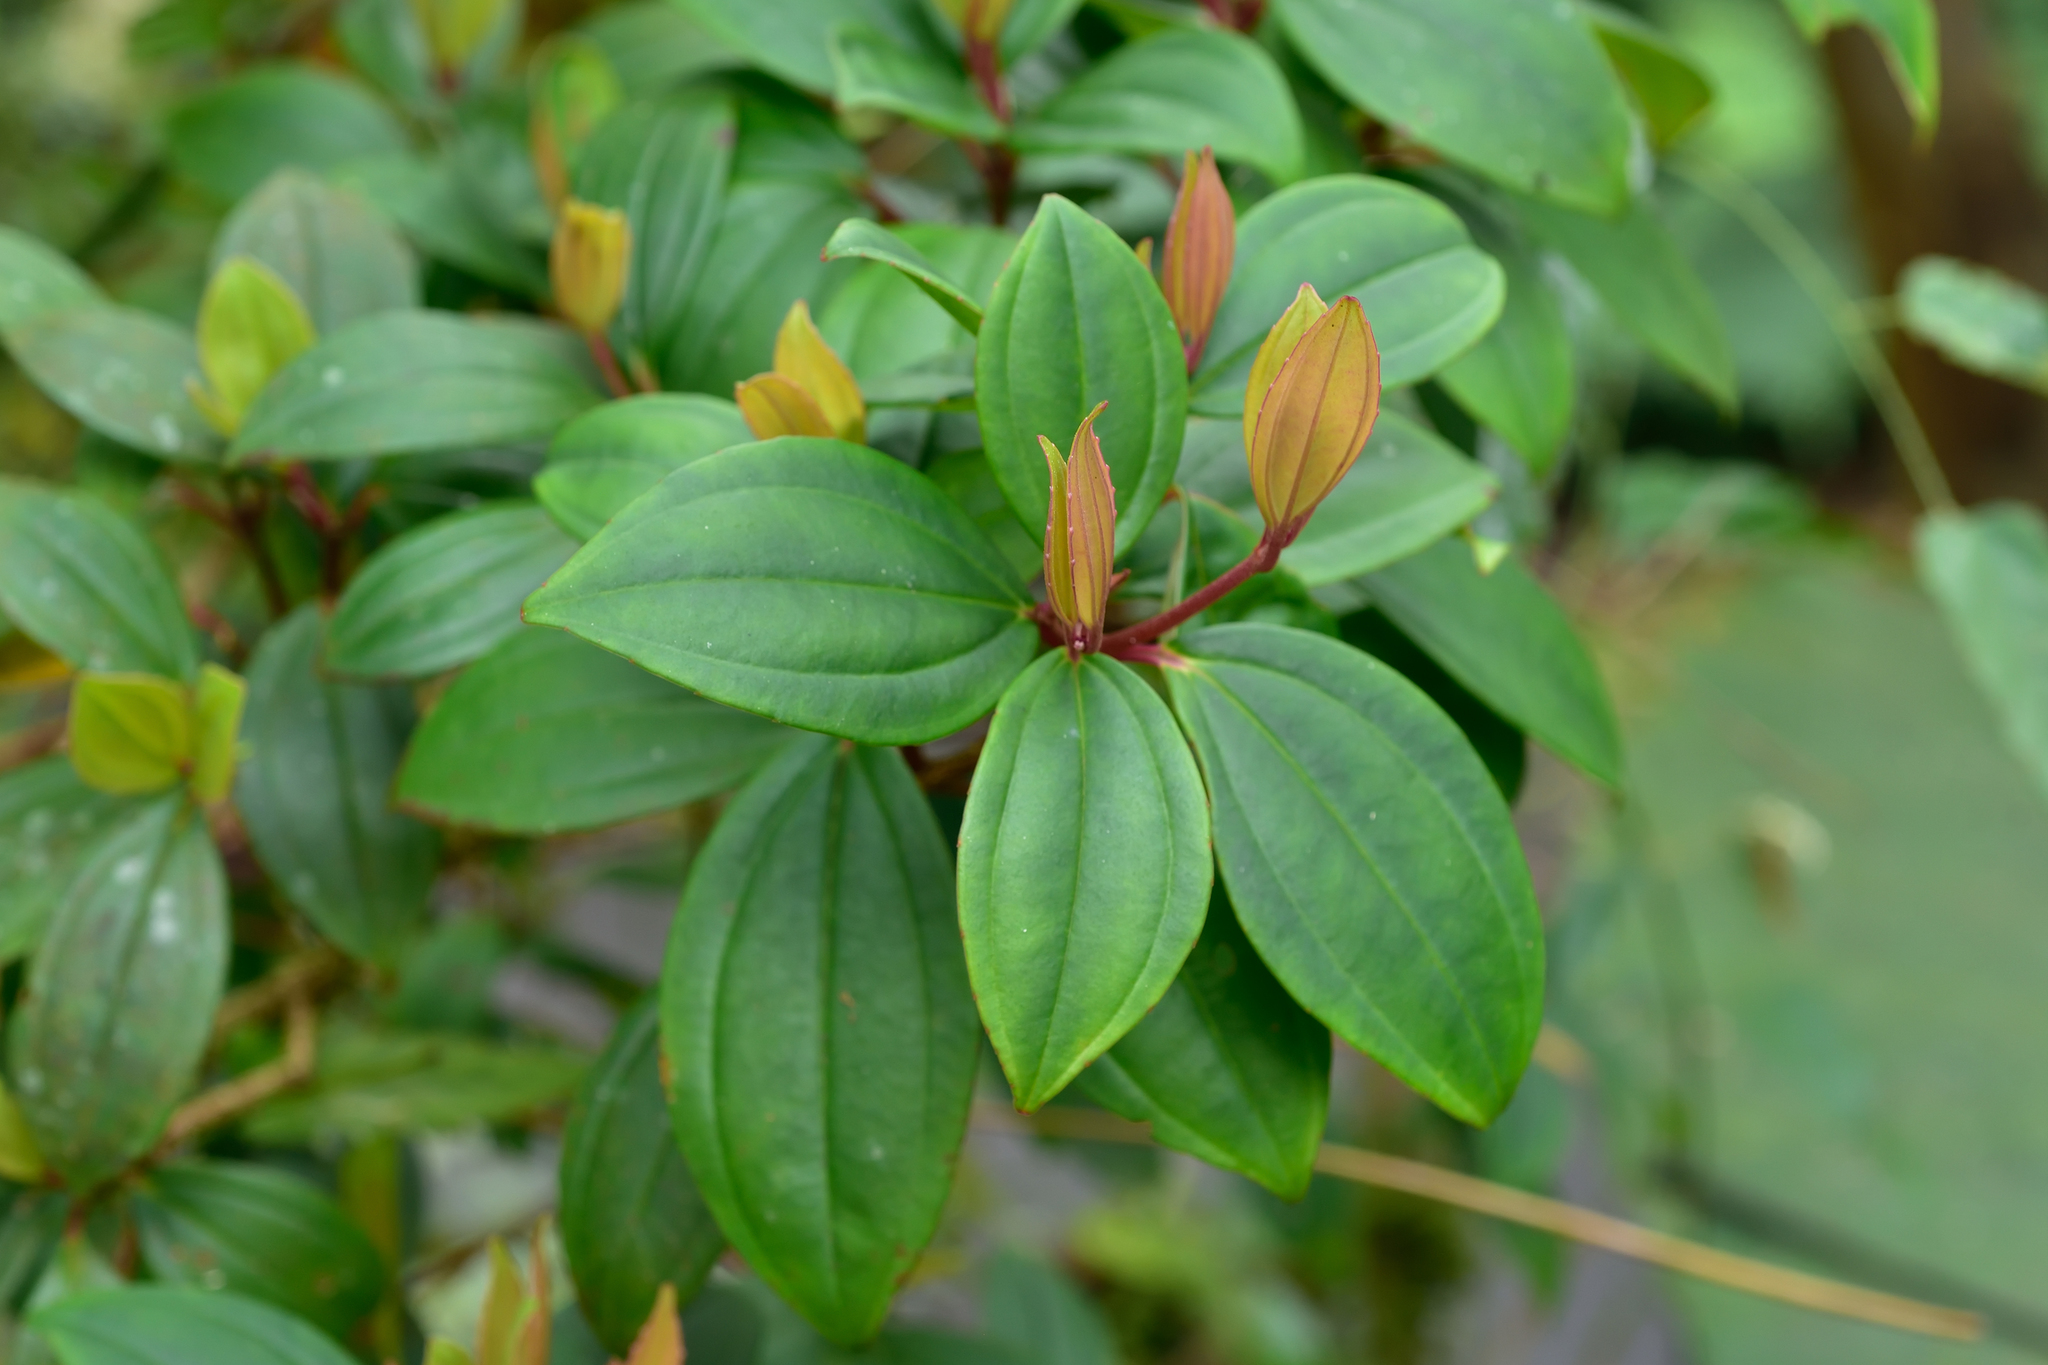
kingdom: Plantae
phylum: Tracheophyta
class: Magnoliopsida
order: Myrtales
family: Melastomataceae
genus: Medinilla
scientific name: Medinilla fengii
